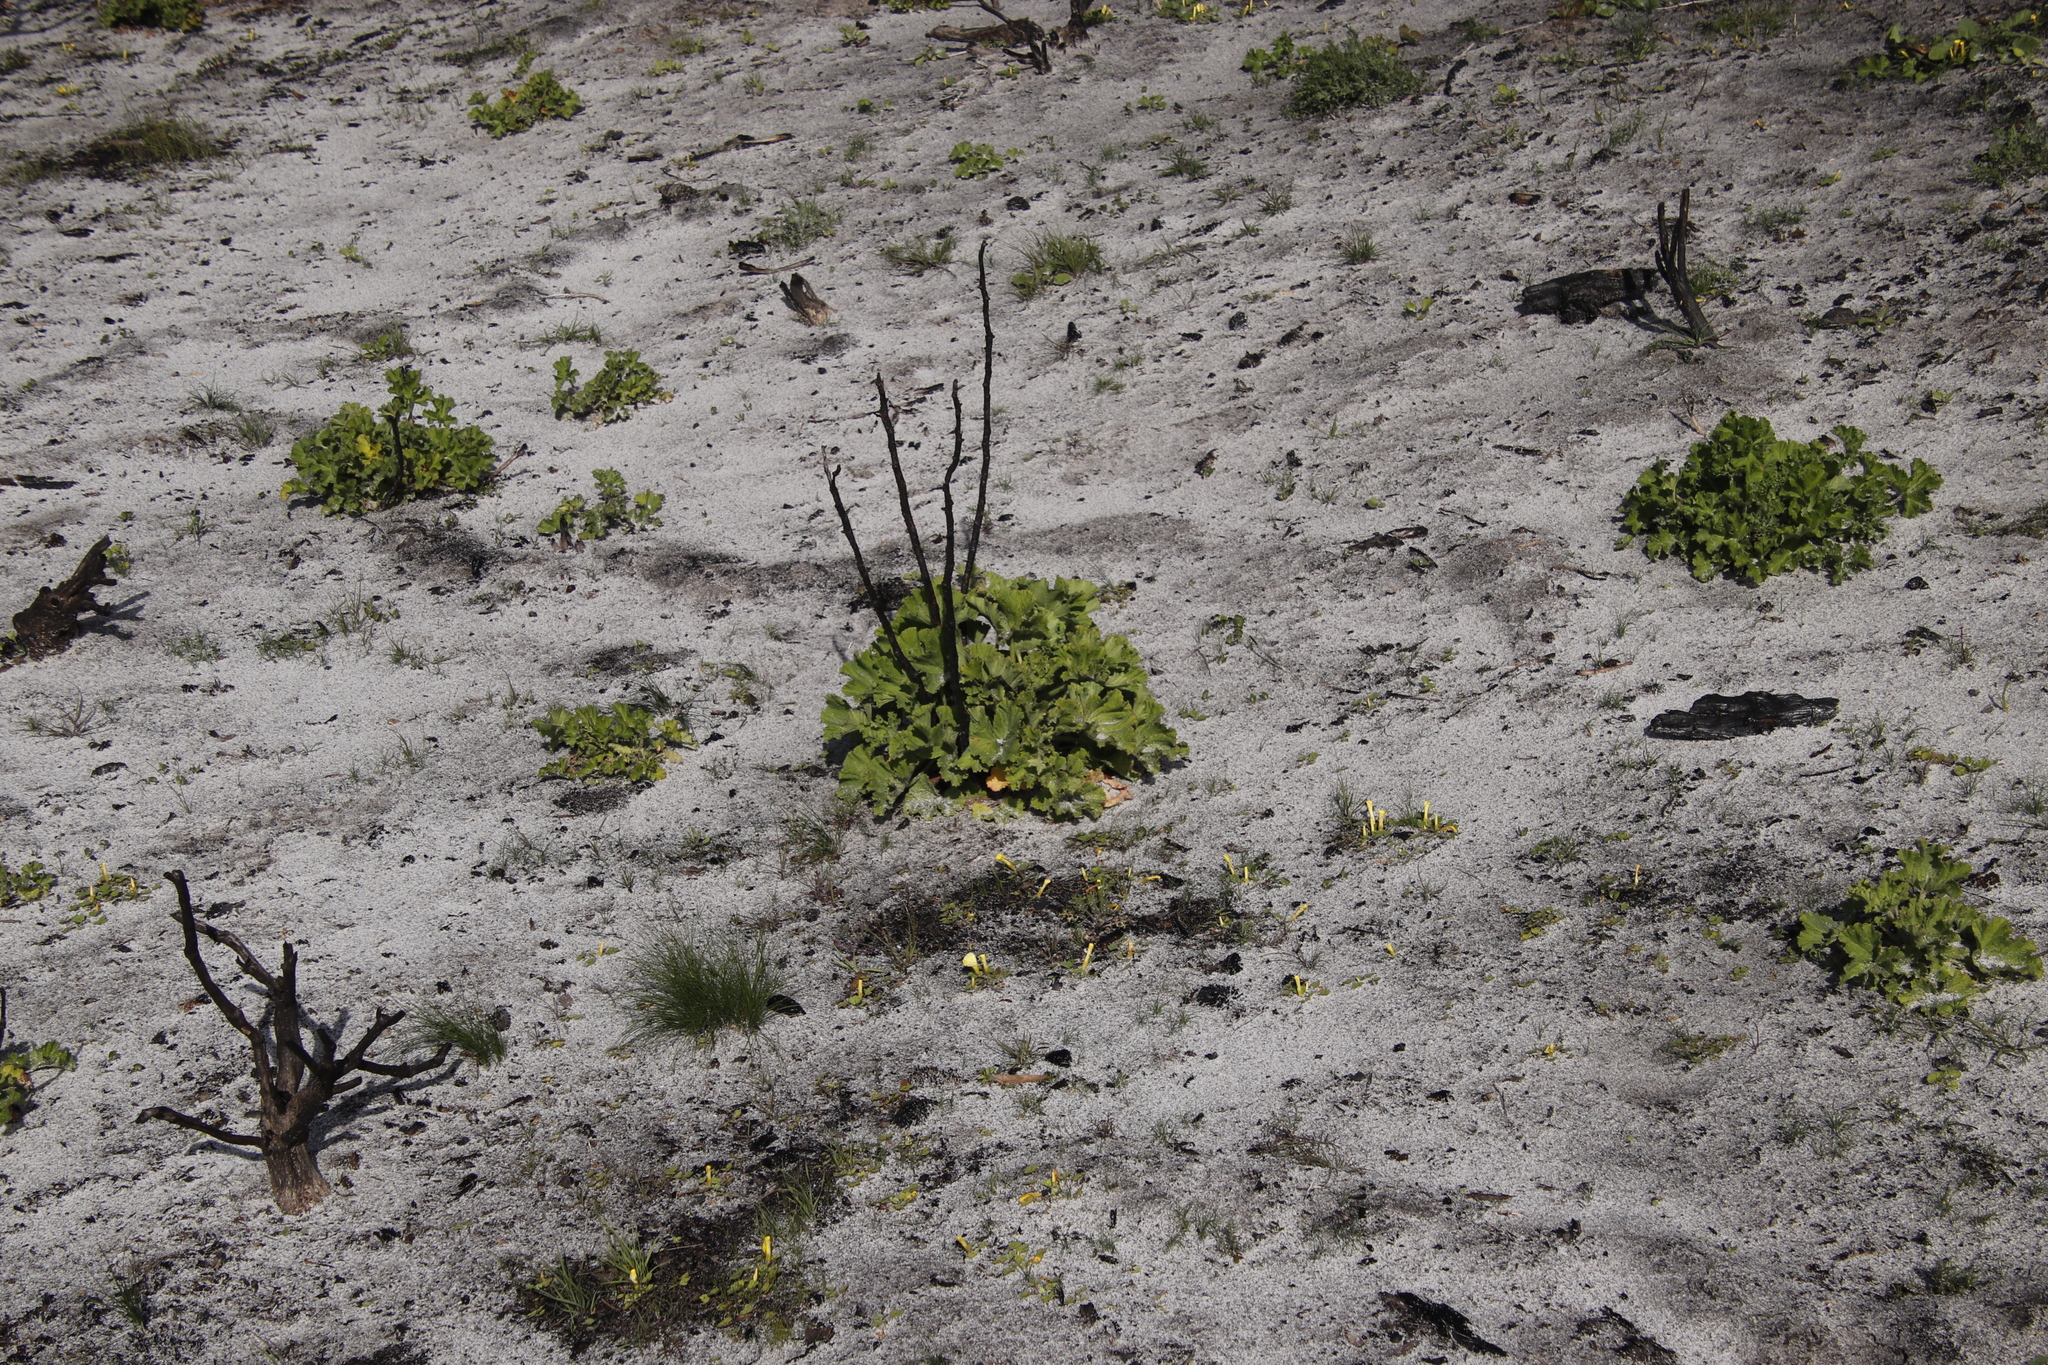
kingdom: Plantae
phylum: Tracheophyta
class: Magnoliopsida
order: Geraniales
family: Geraniaceae
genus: Pelargonium
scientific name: Pelargonium cucullatum
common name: Tree pelargonium
